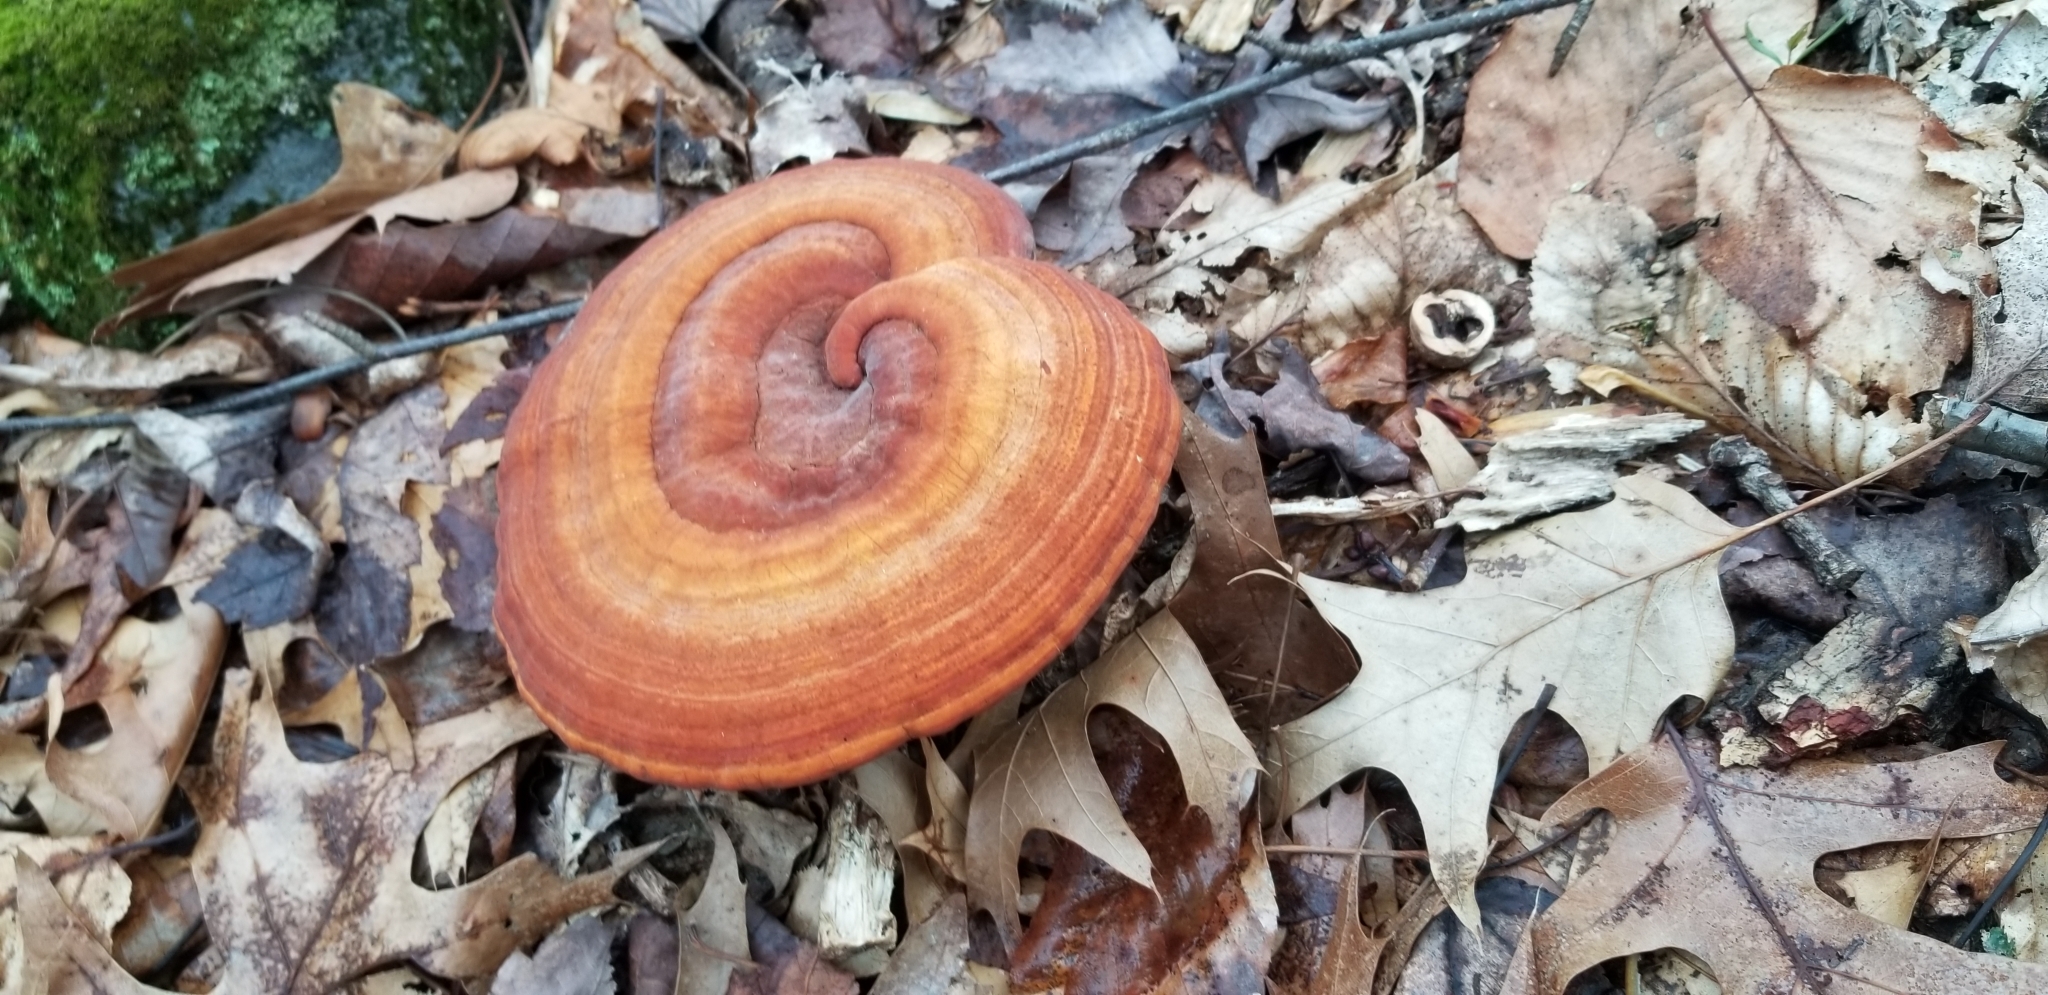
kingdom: Fungi
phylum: Basidiomycota
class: Agaricomycetes
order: Polyporales
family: Polyporaceae
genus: Ganoderma
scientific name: Ganoderma curtisii
